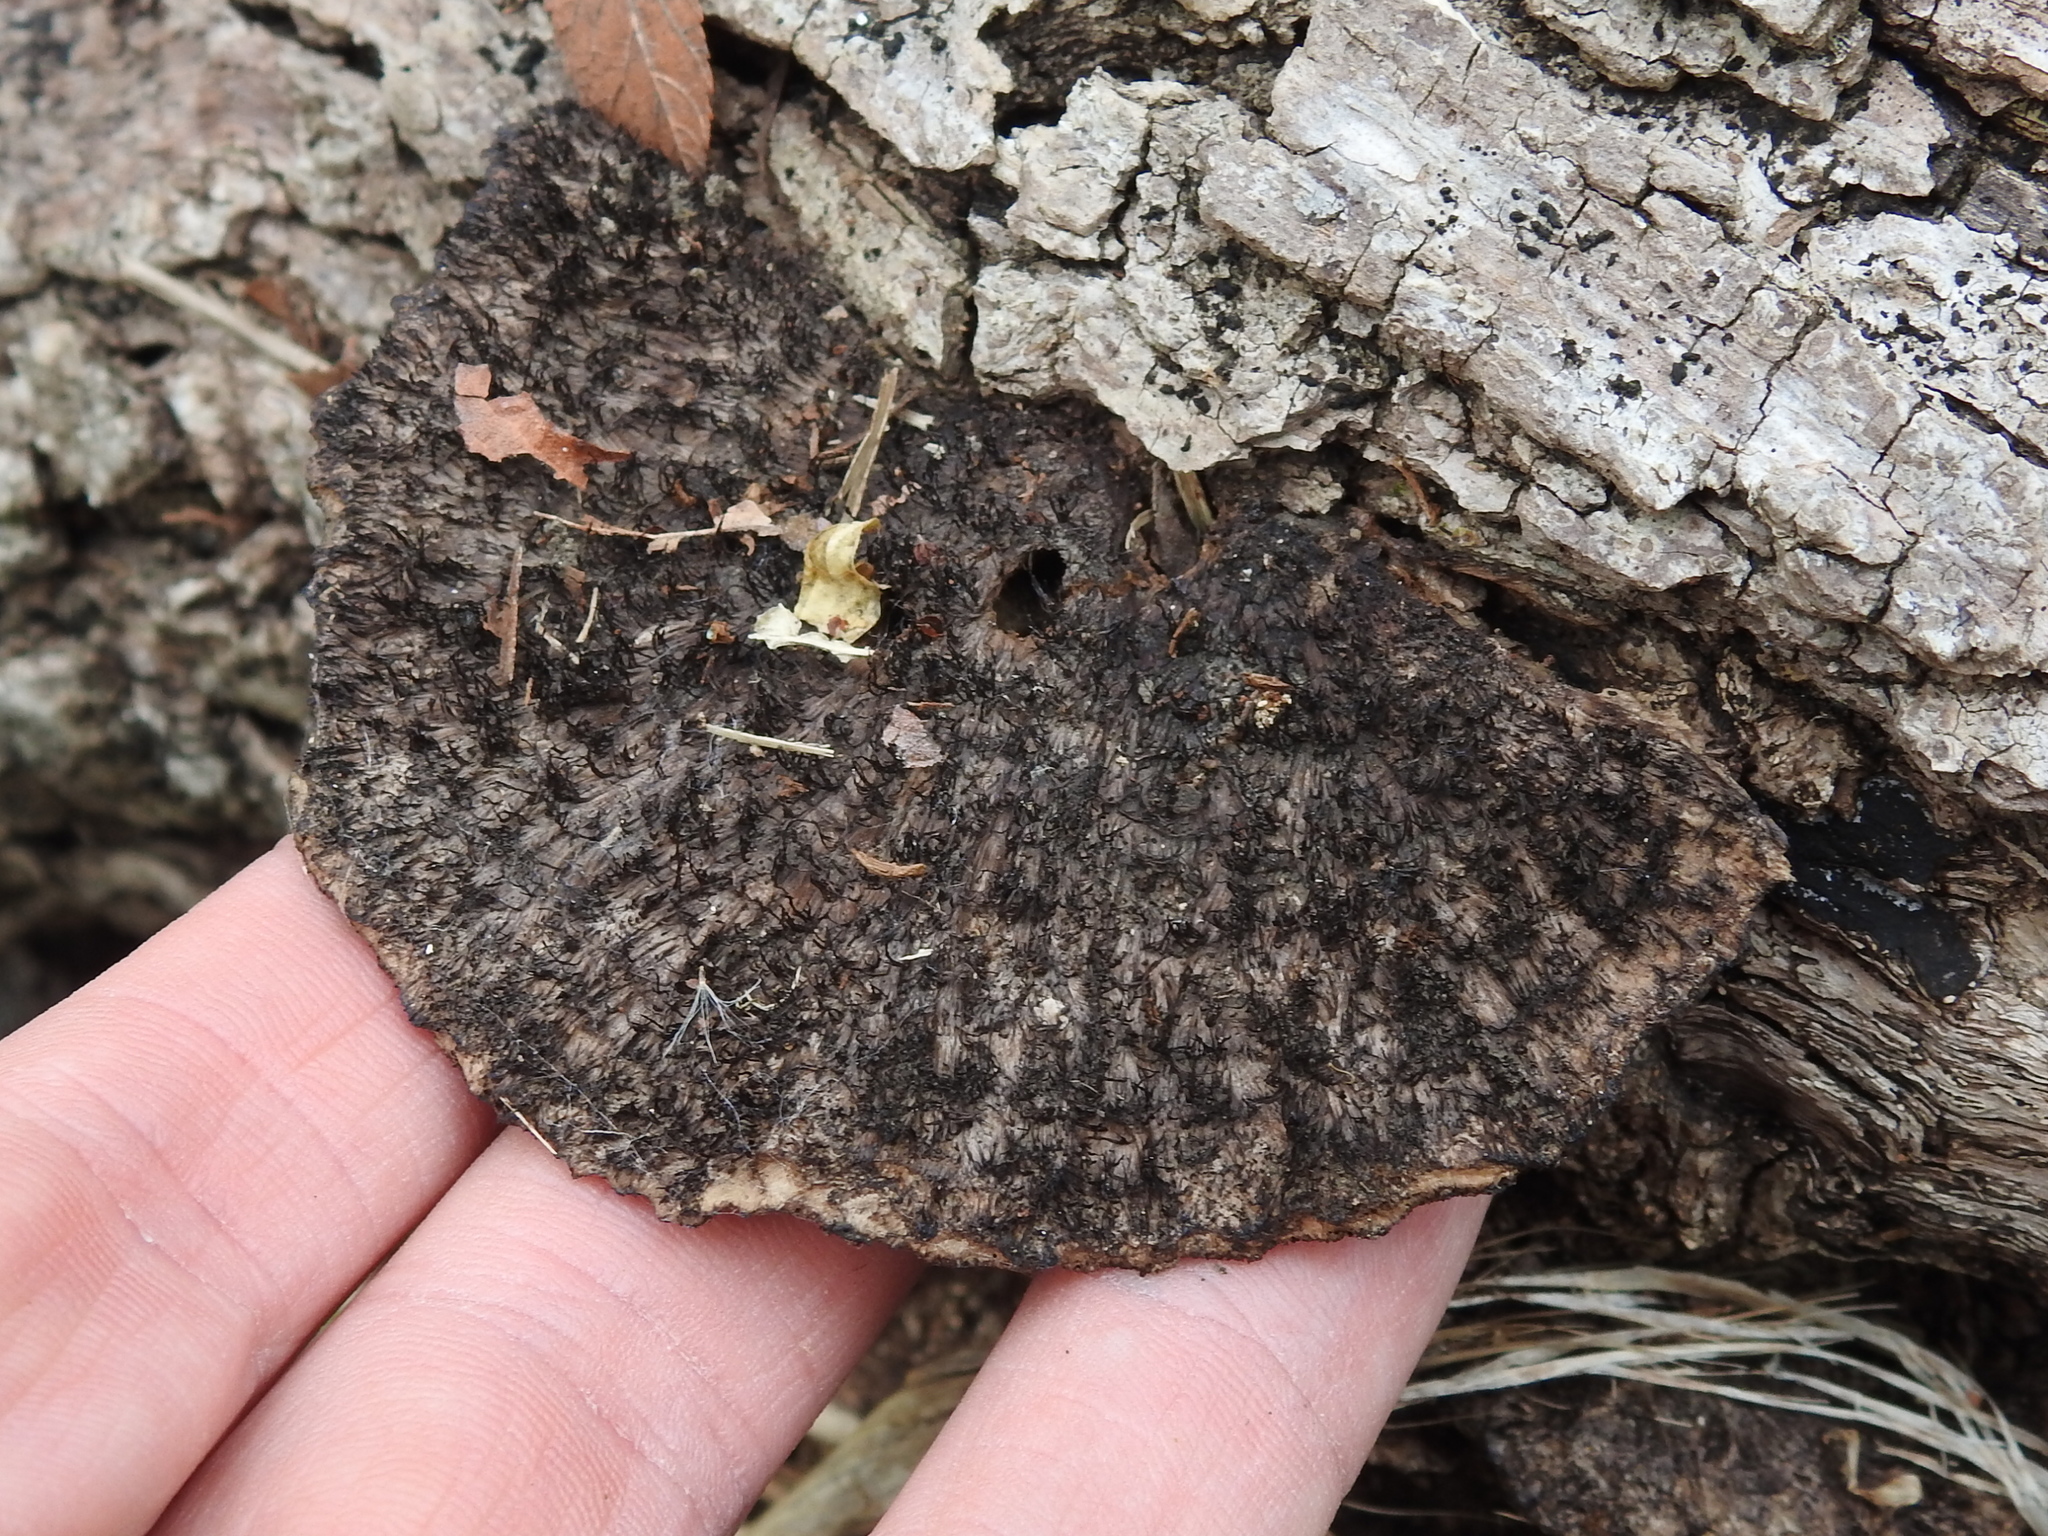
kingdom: Fungi
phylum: Basidiomycota
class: Agaricomycetes
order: Polyporales
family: Cerrenaceae
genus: Cerrena
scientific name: Cerrena hydnoides
